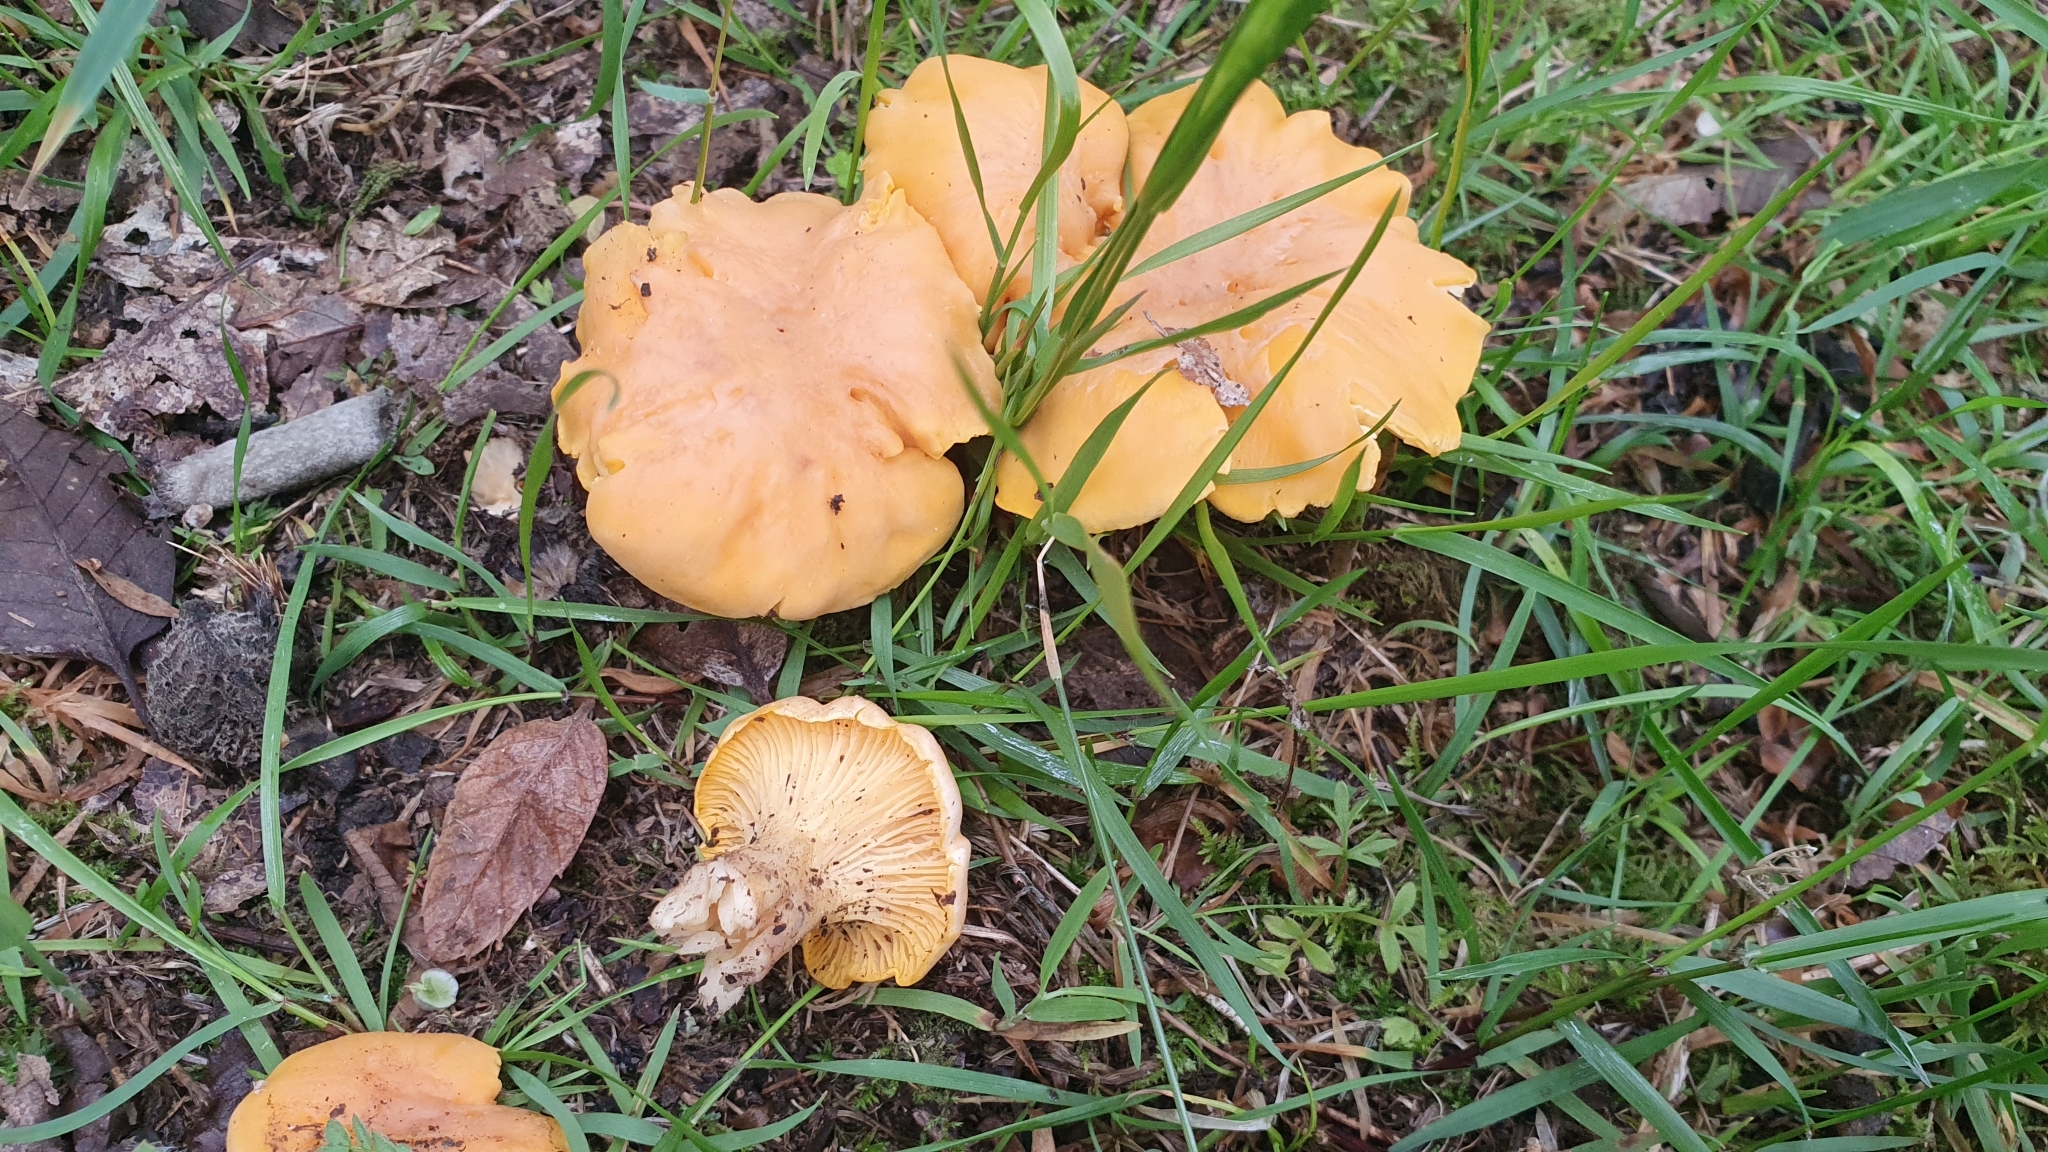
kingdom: Fungi
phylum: Basidiomycota
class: Agaricomycetes
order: Cantharellales
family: Hydnaceae
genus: Cantharellus
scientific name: Cantharellus pallens
